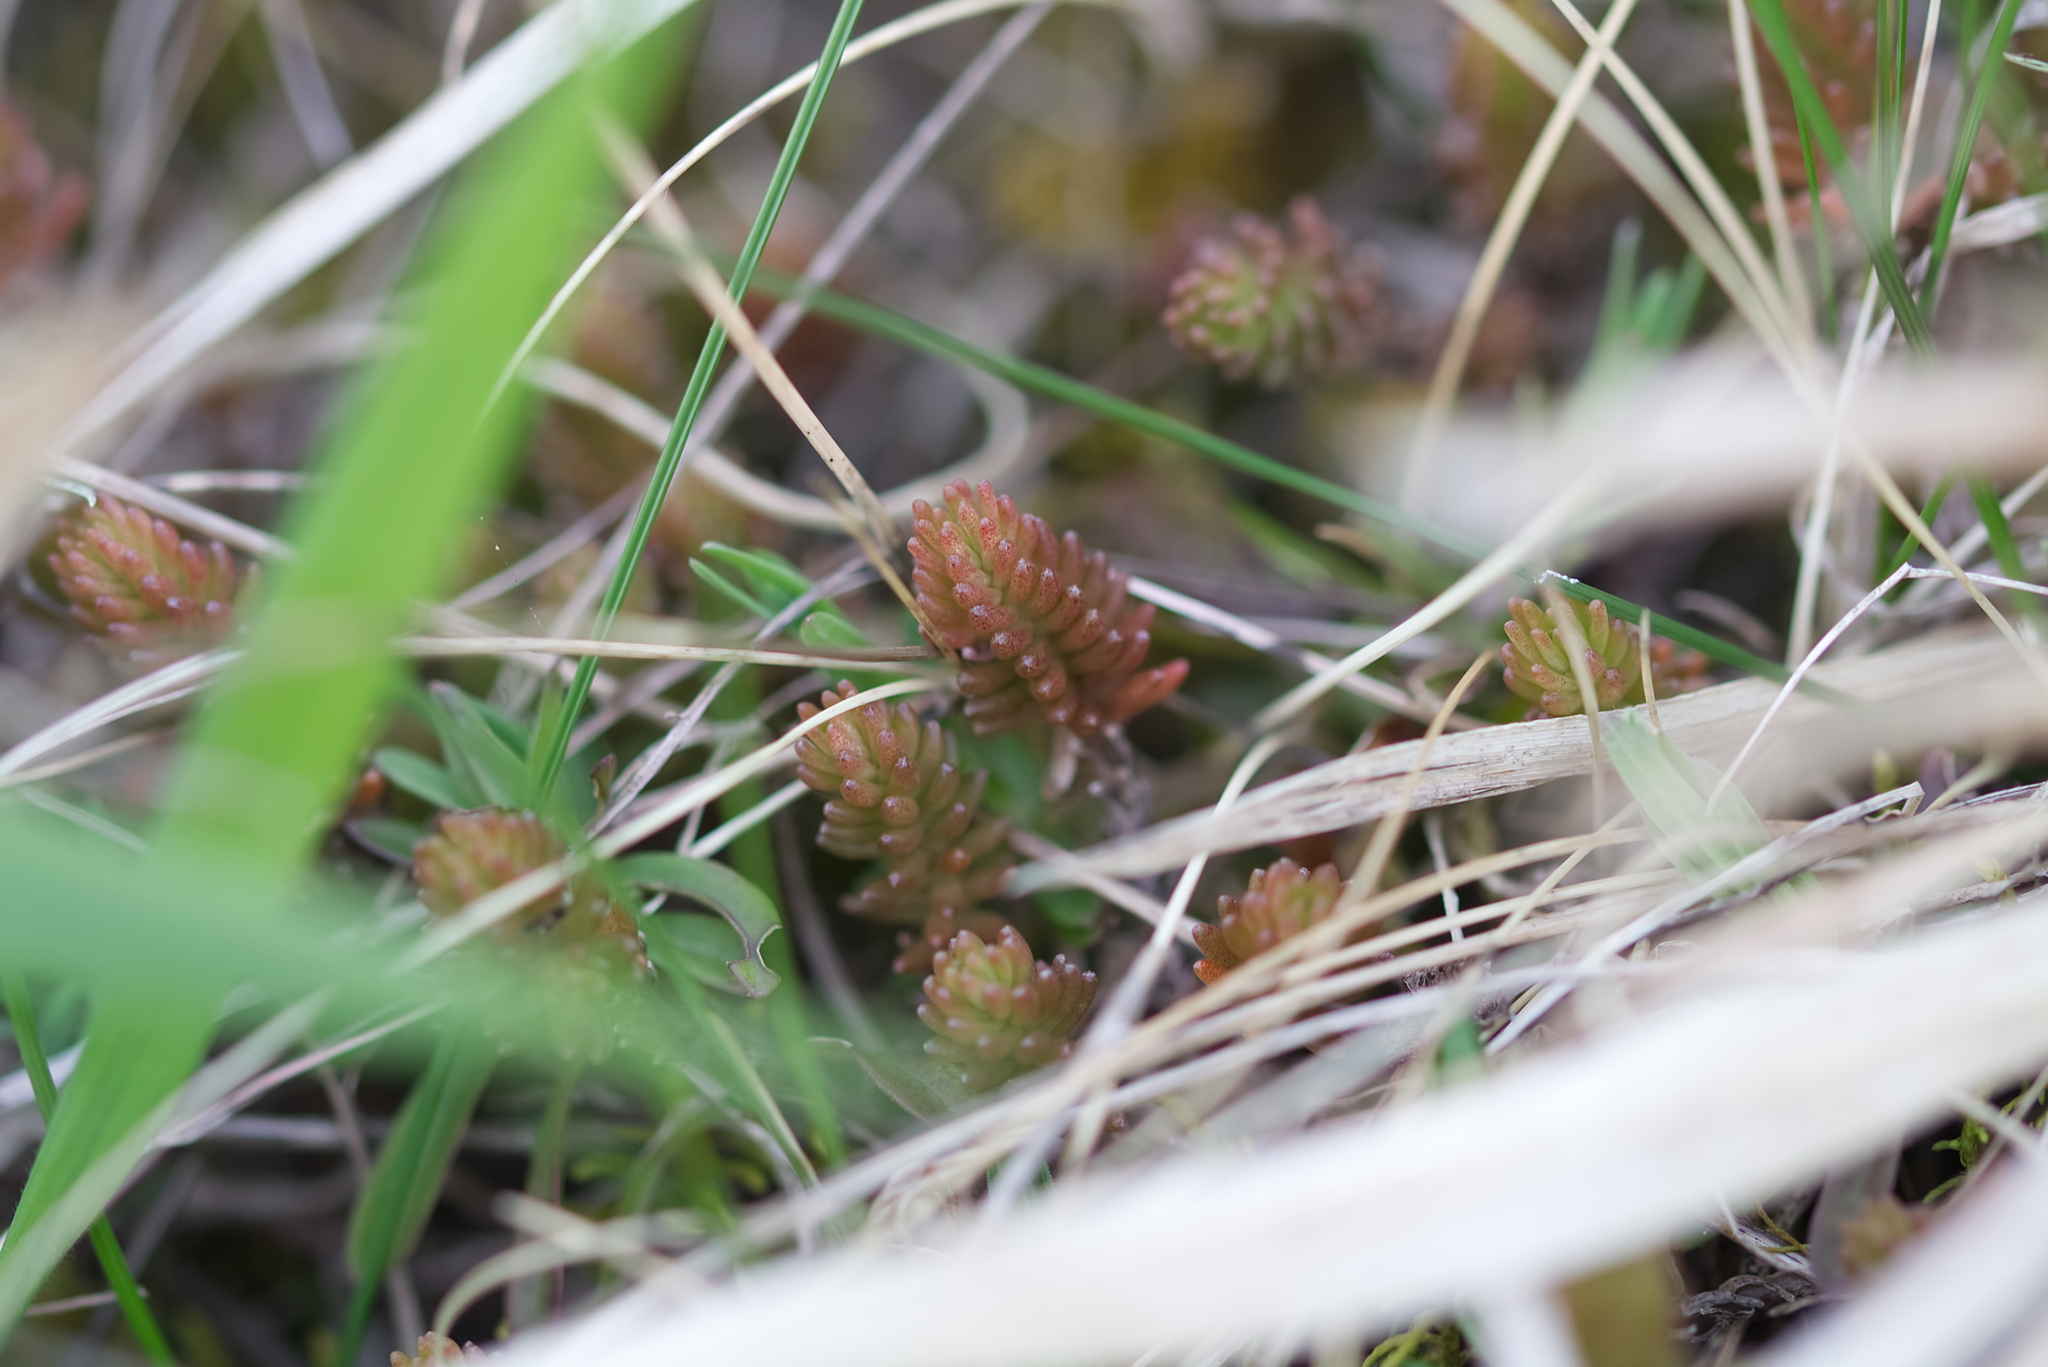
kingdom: Plantae
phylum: Tracheophyta
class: Magnoliopsida
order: Saxifragales
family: Crassulaceae
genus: Sedum
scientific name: Sedum sexangulare
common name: Tasteless stonecrop
